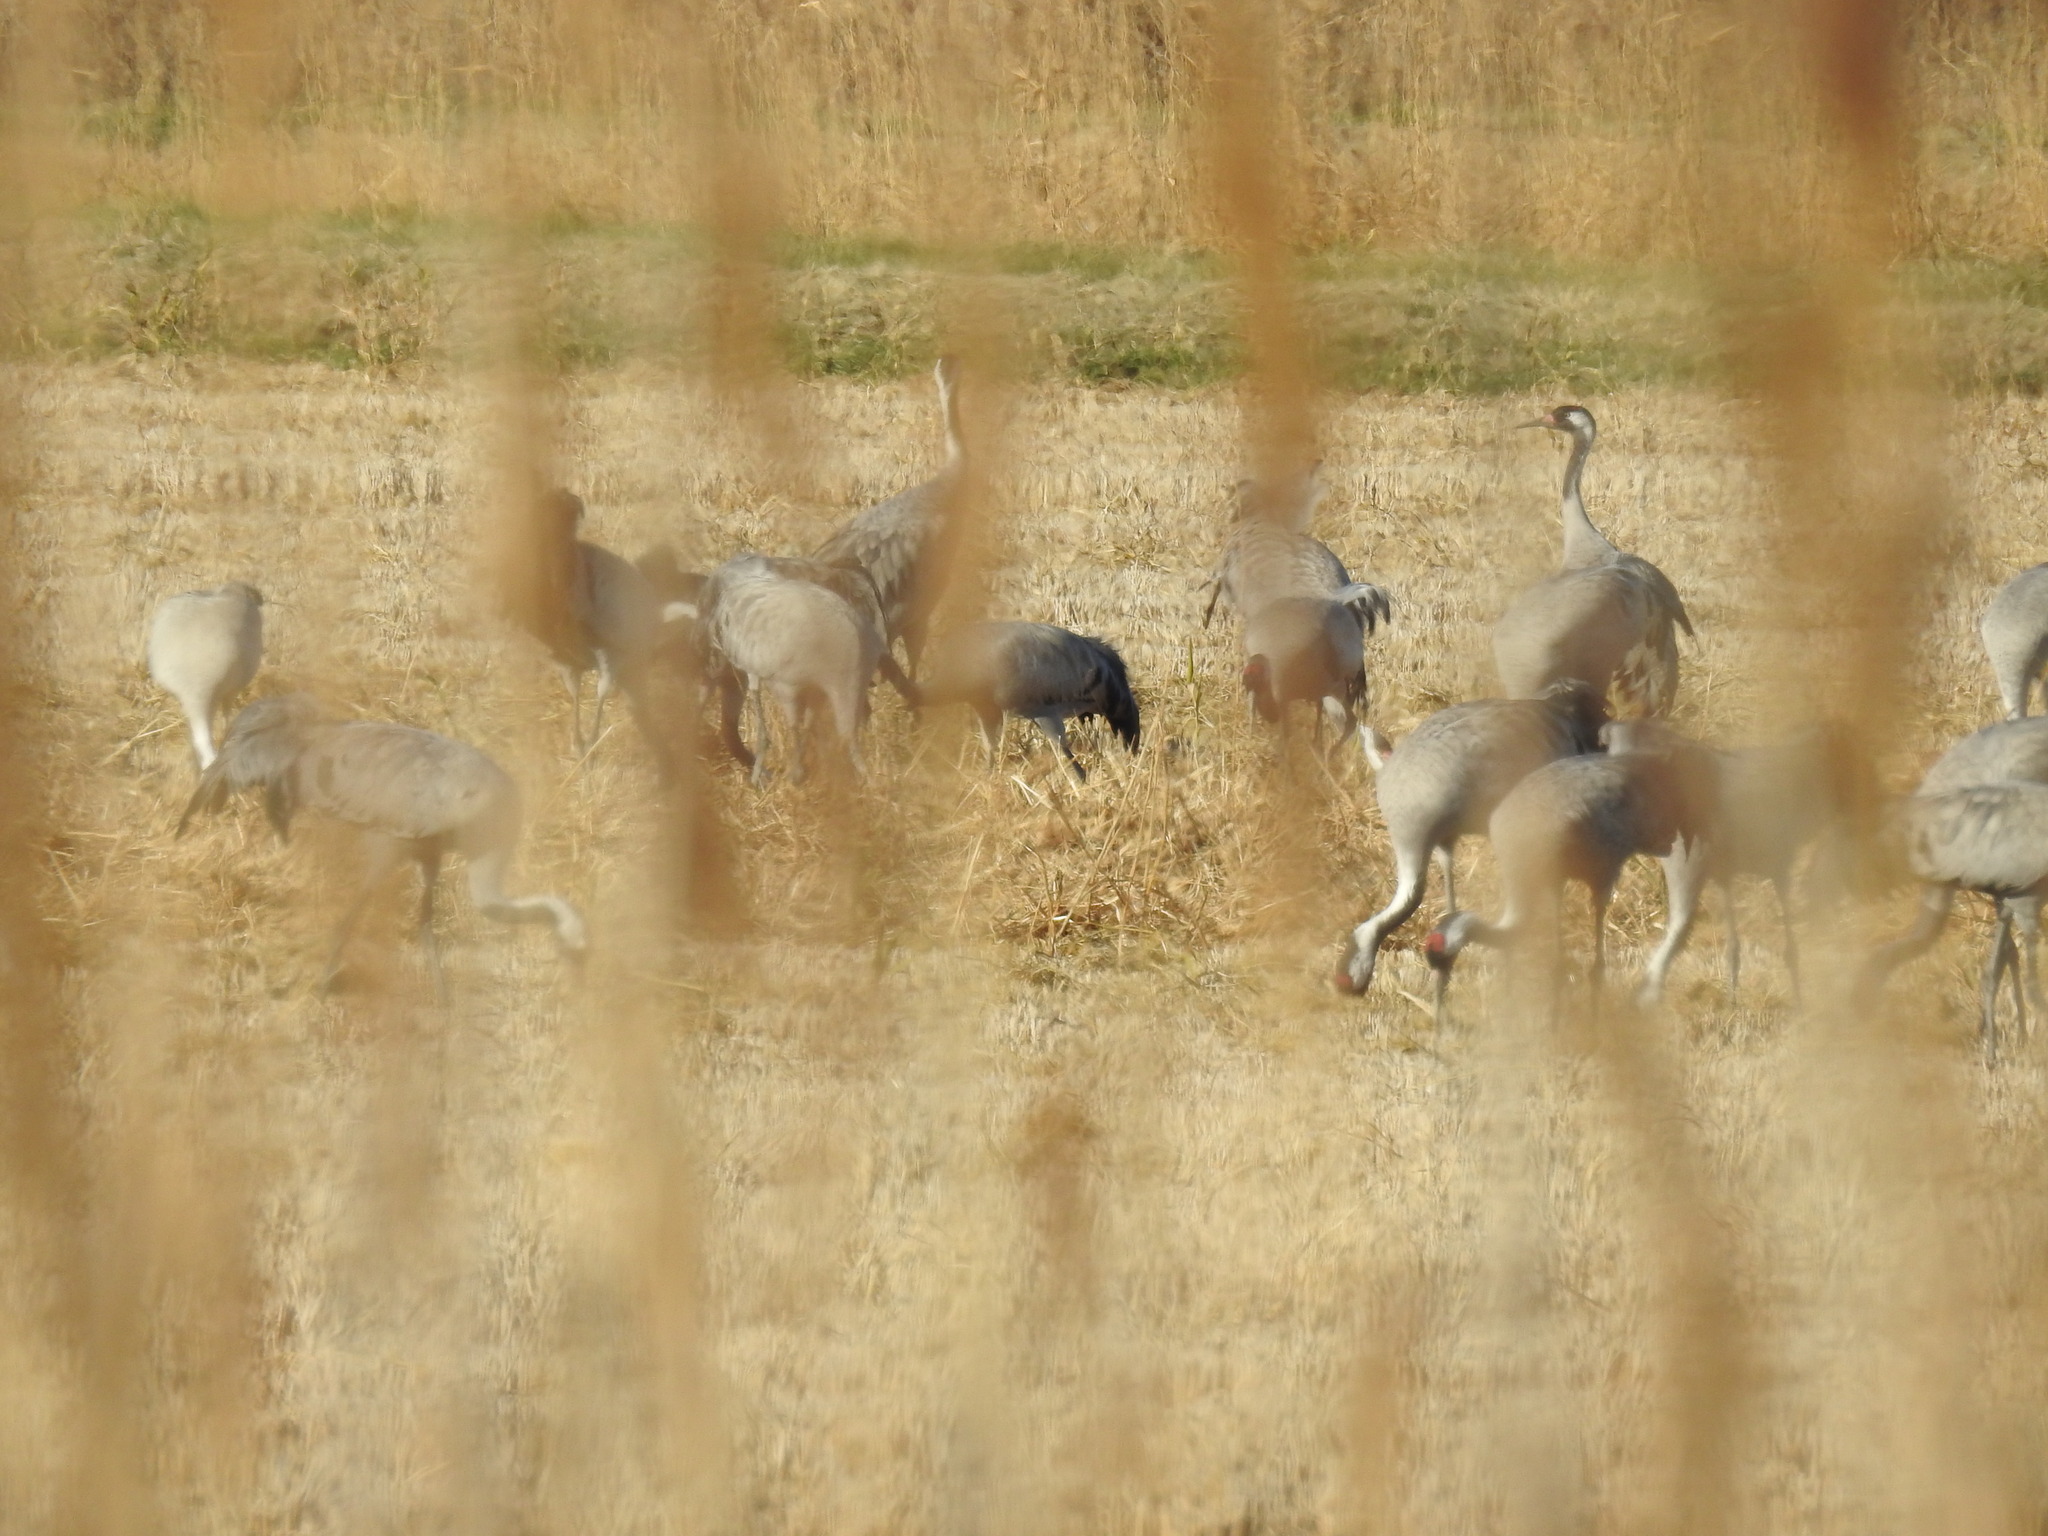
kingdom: Animalia
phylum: Chordata
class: Aves
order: Gruiformes
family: Gruidae
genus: Grus
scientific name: Grus grus
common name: Common crane
